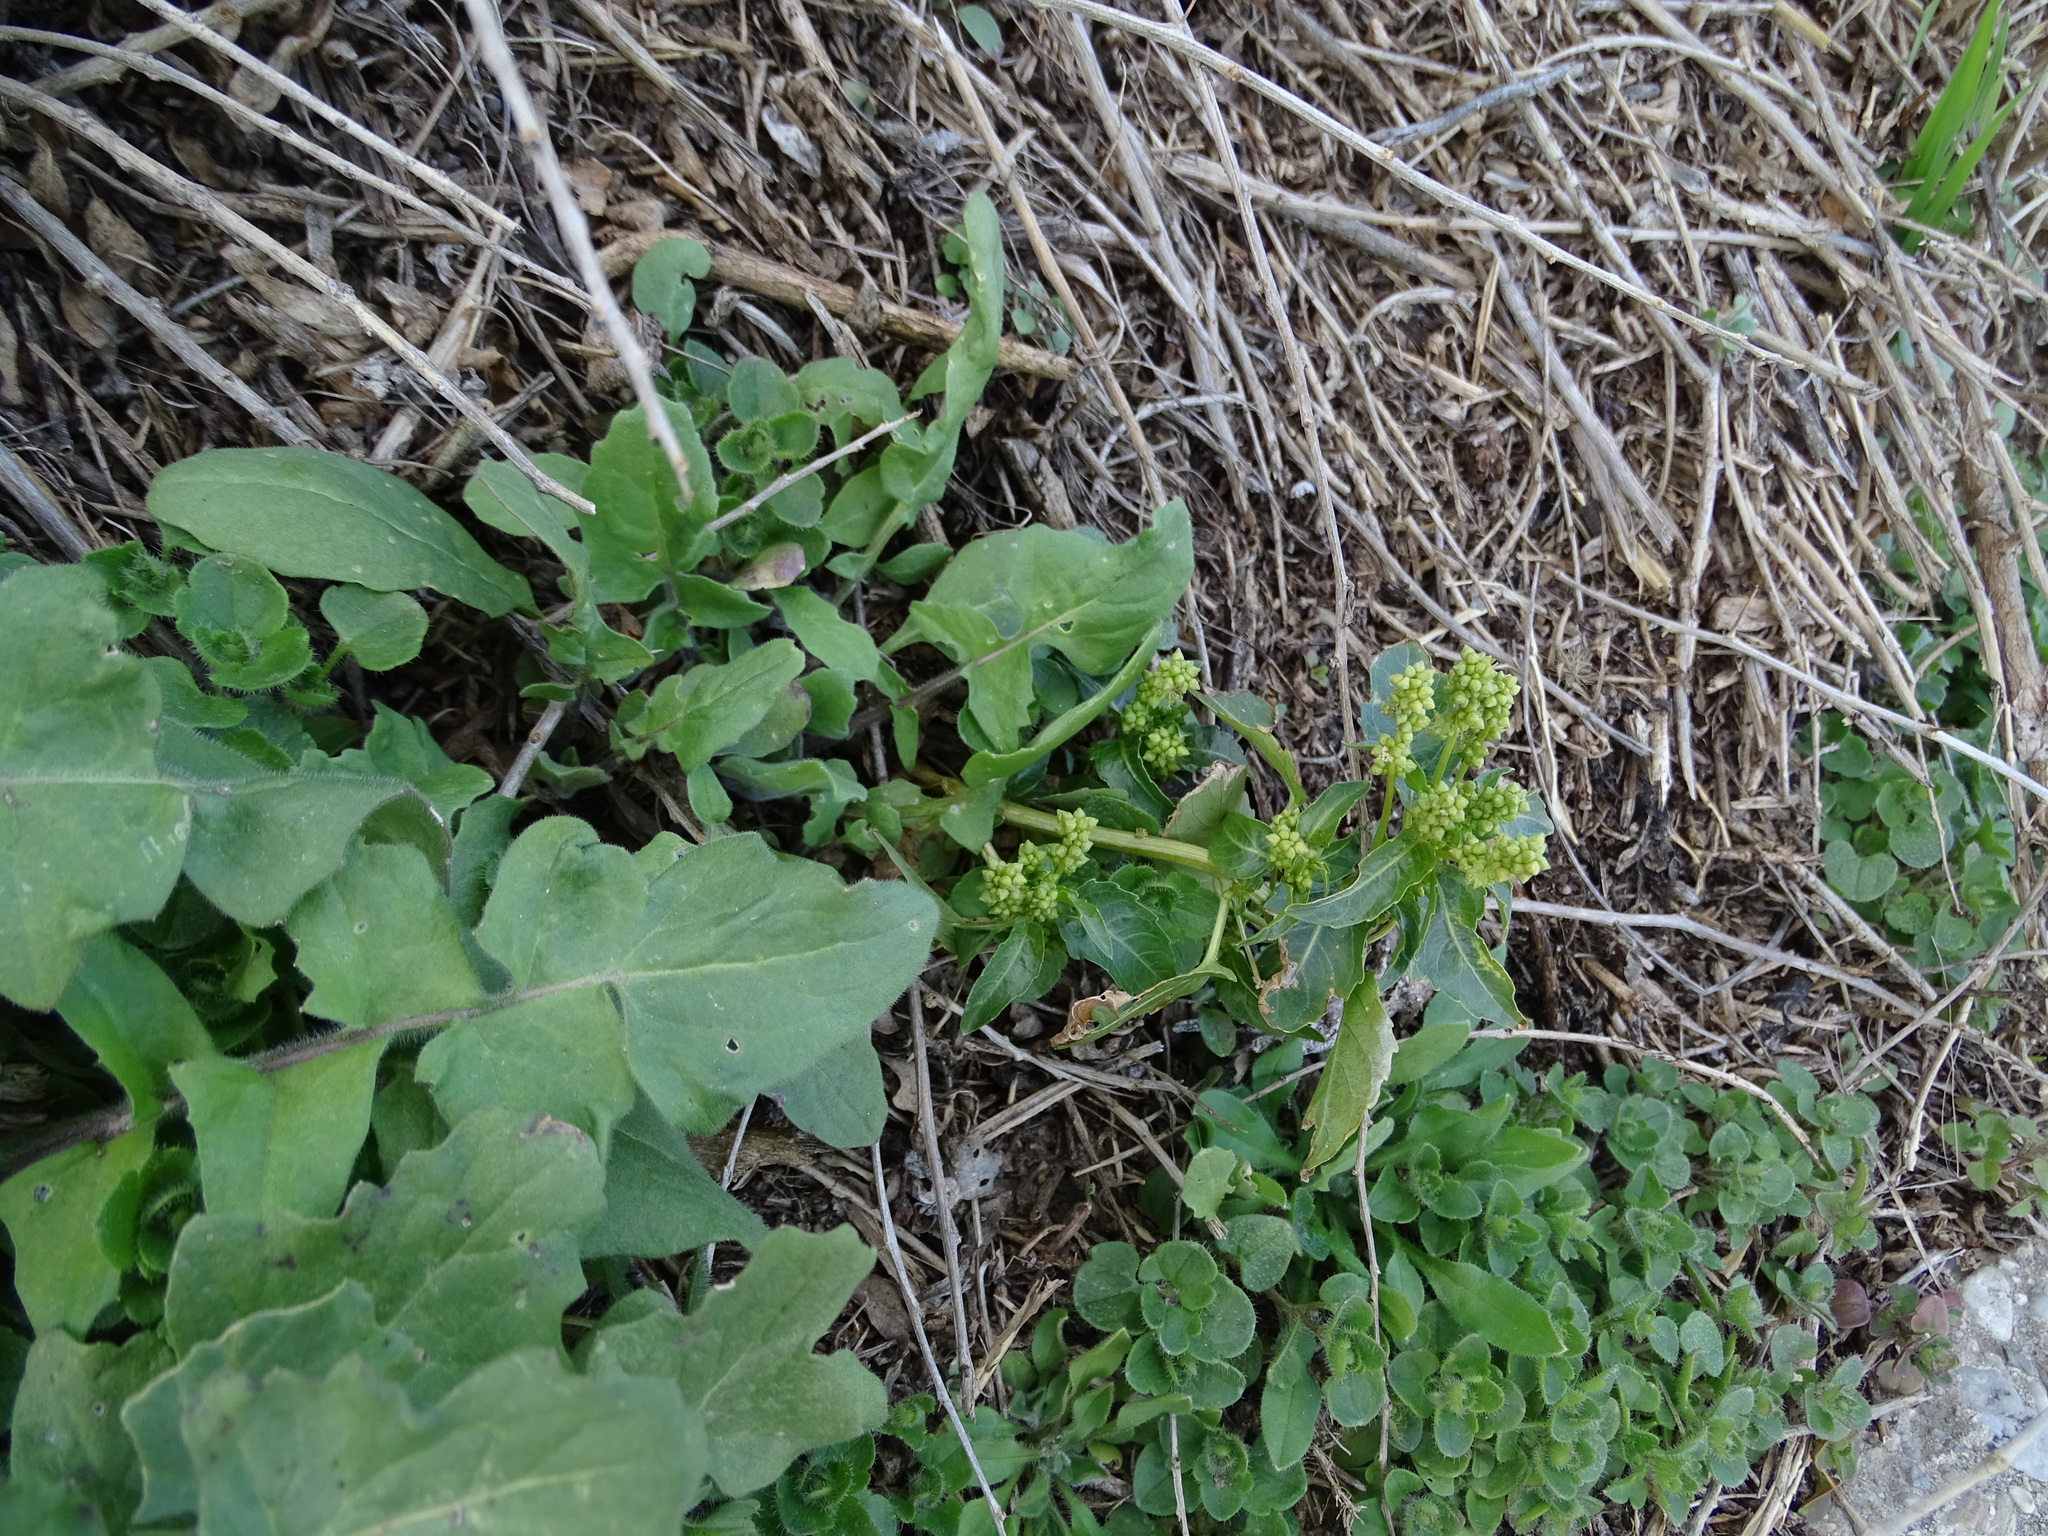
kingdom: Plantae
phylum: Tracheophyta
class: Magnoliopsida
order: Malpighiales
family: Euphorbiaceae
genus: Mercurialis
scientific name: Mercurialis annua
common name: Annual mercury
